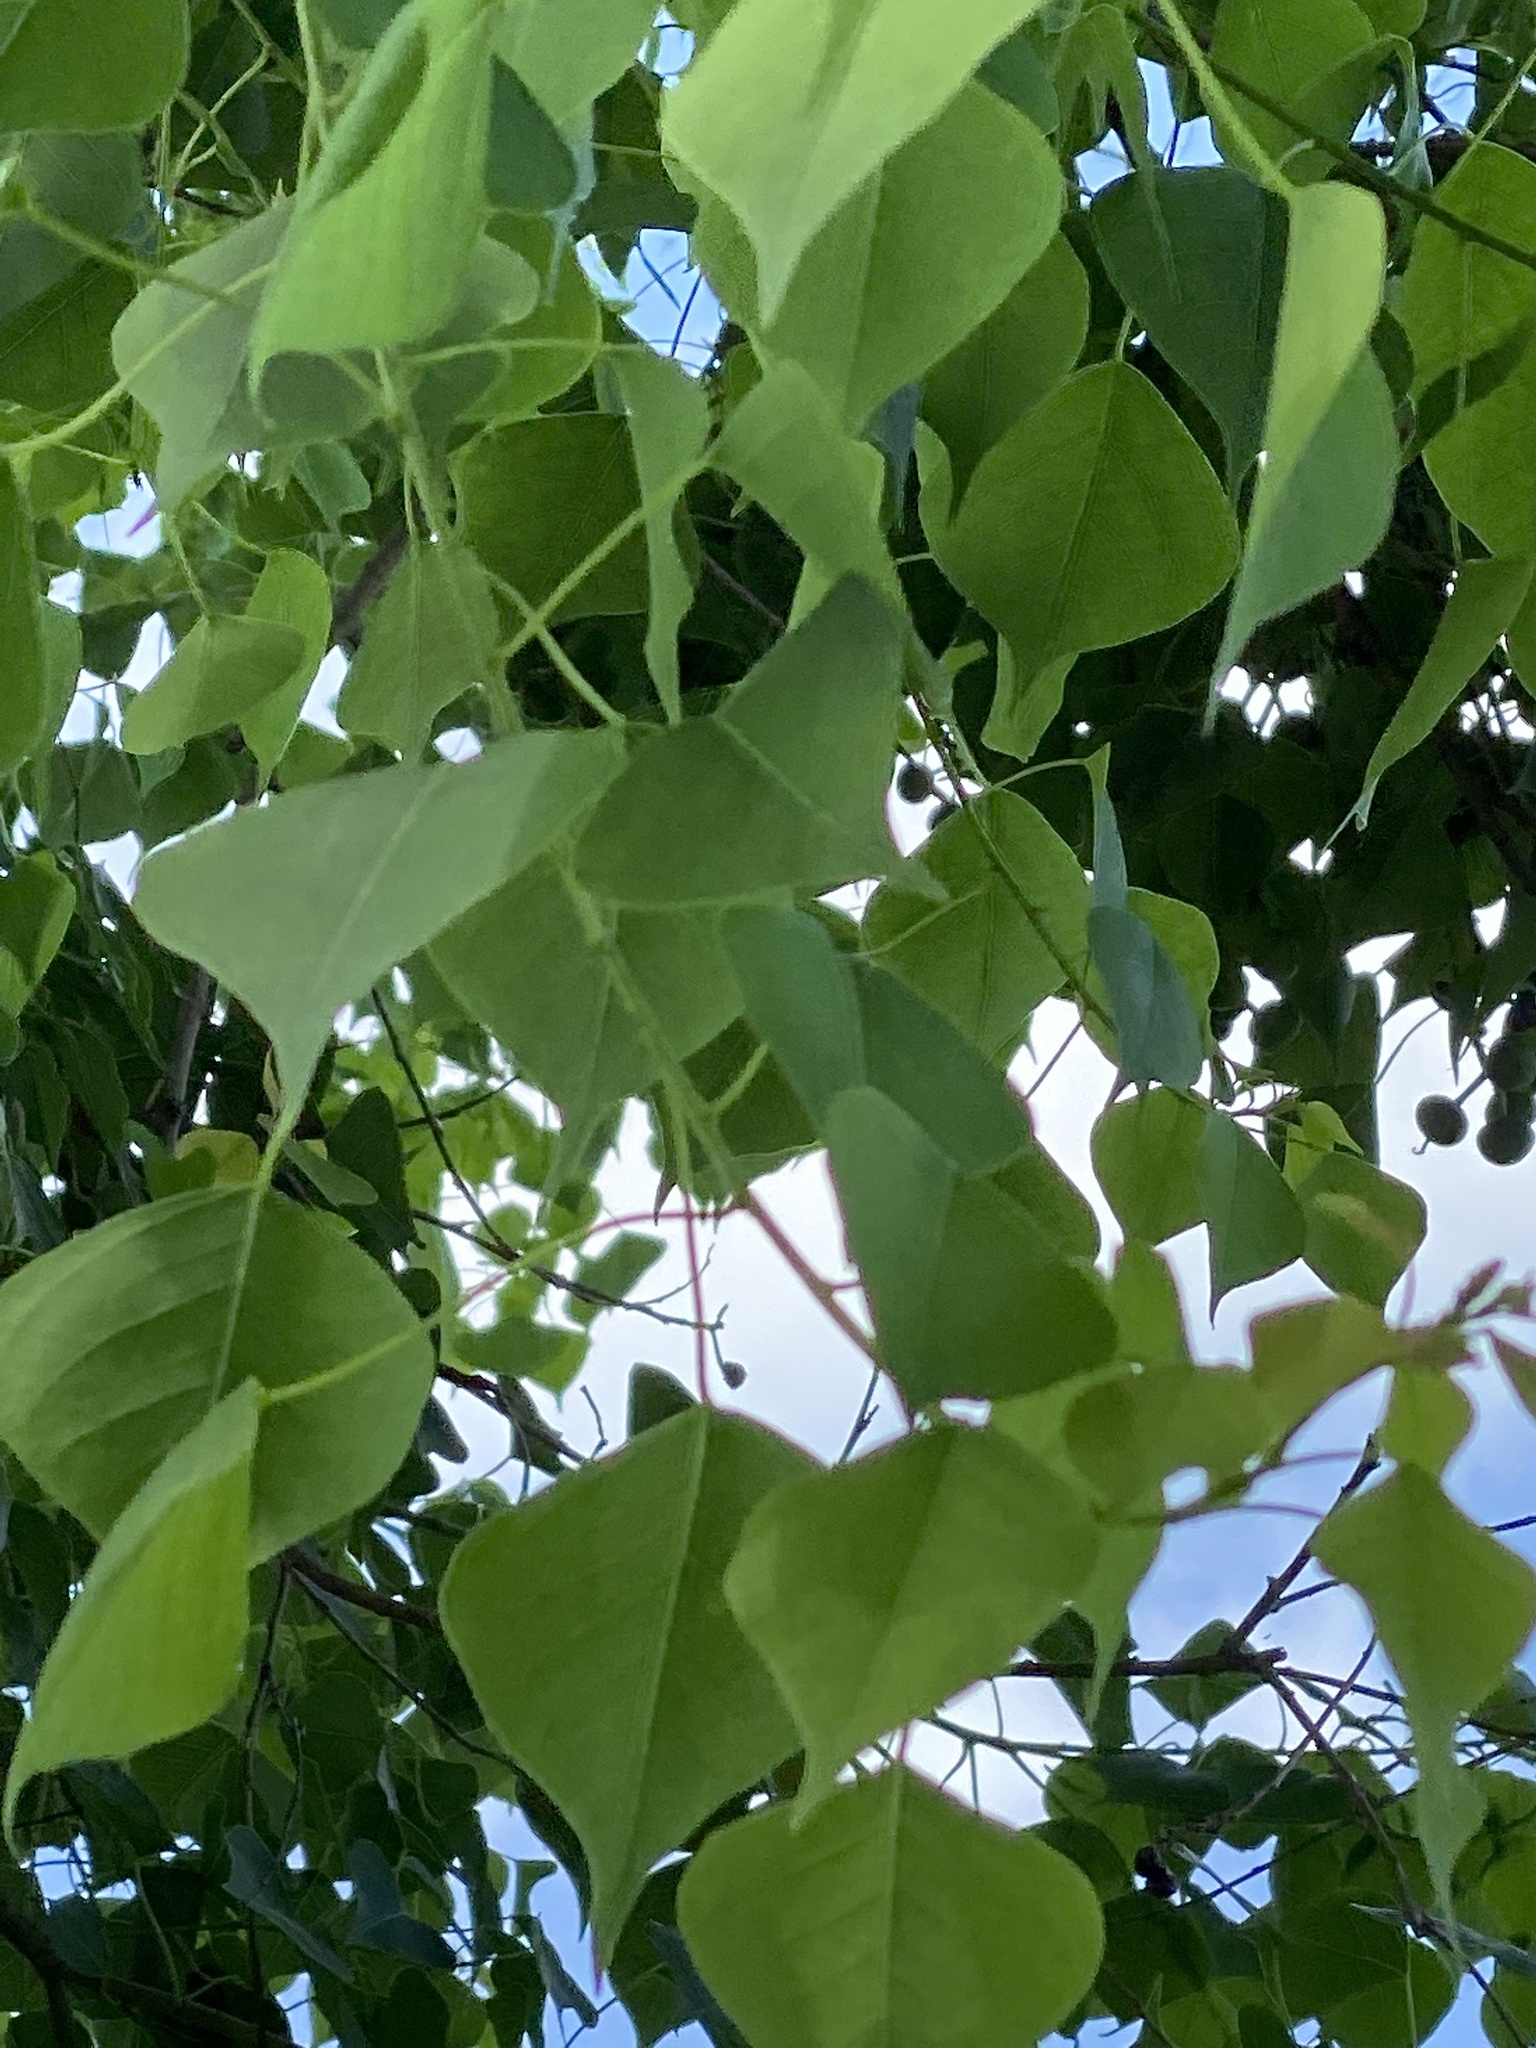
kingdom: Plantae
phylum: Tracheophyta
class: Magnoliopsida
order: Malpighiales
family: Euphorbiaceae
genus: Triadica
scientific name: Triadica sebifera
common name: Chinese tallow
